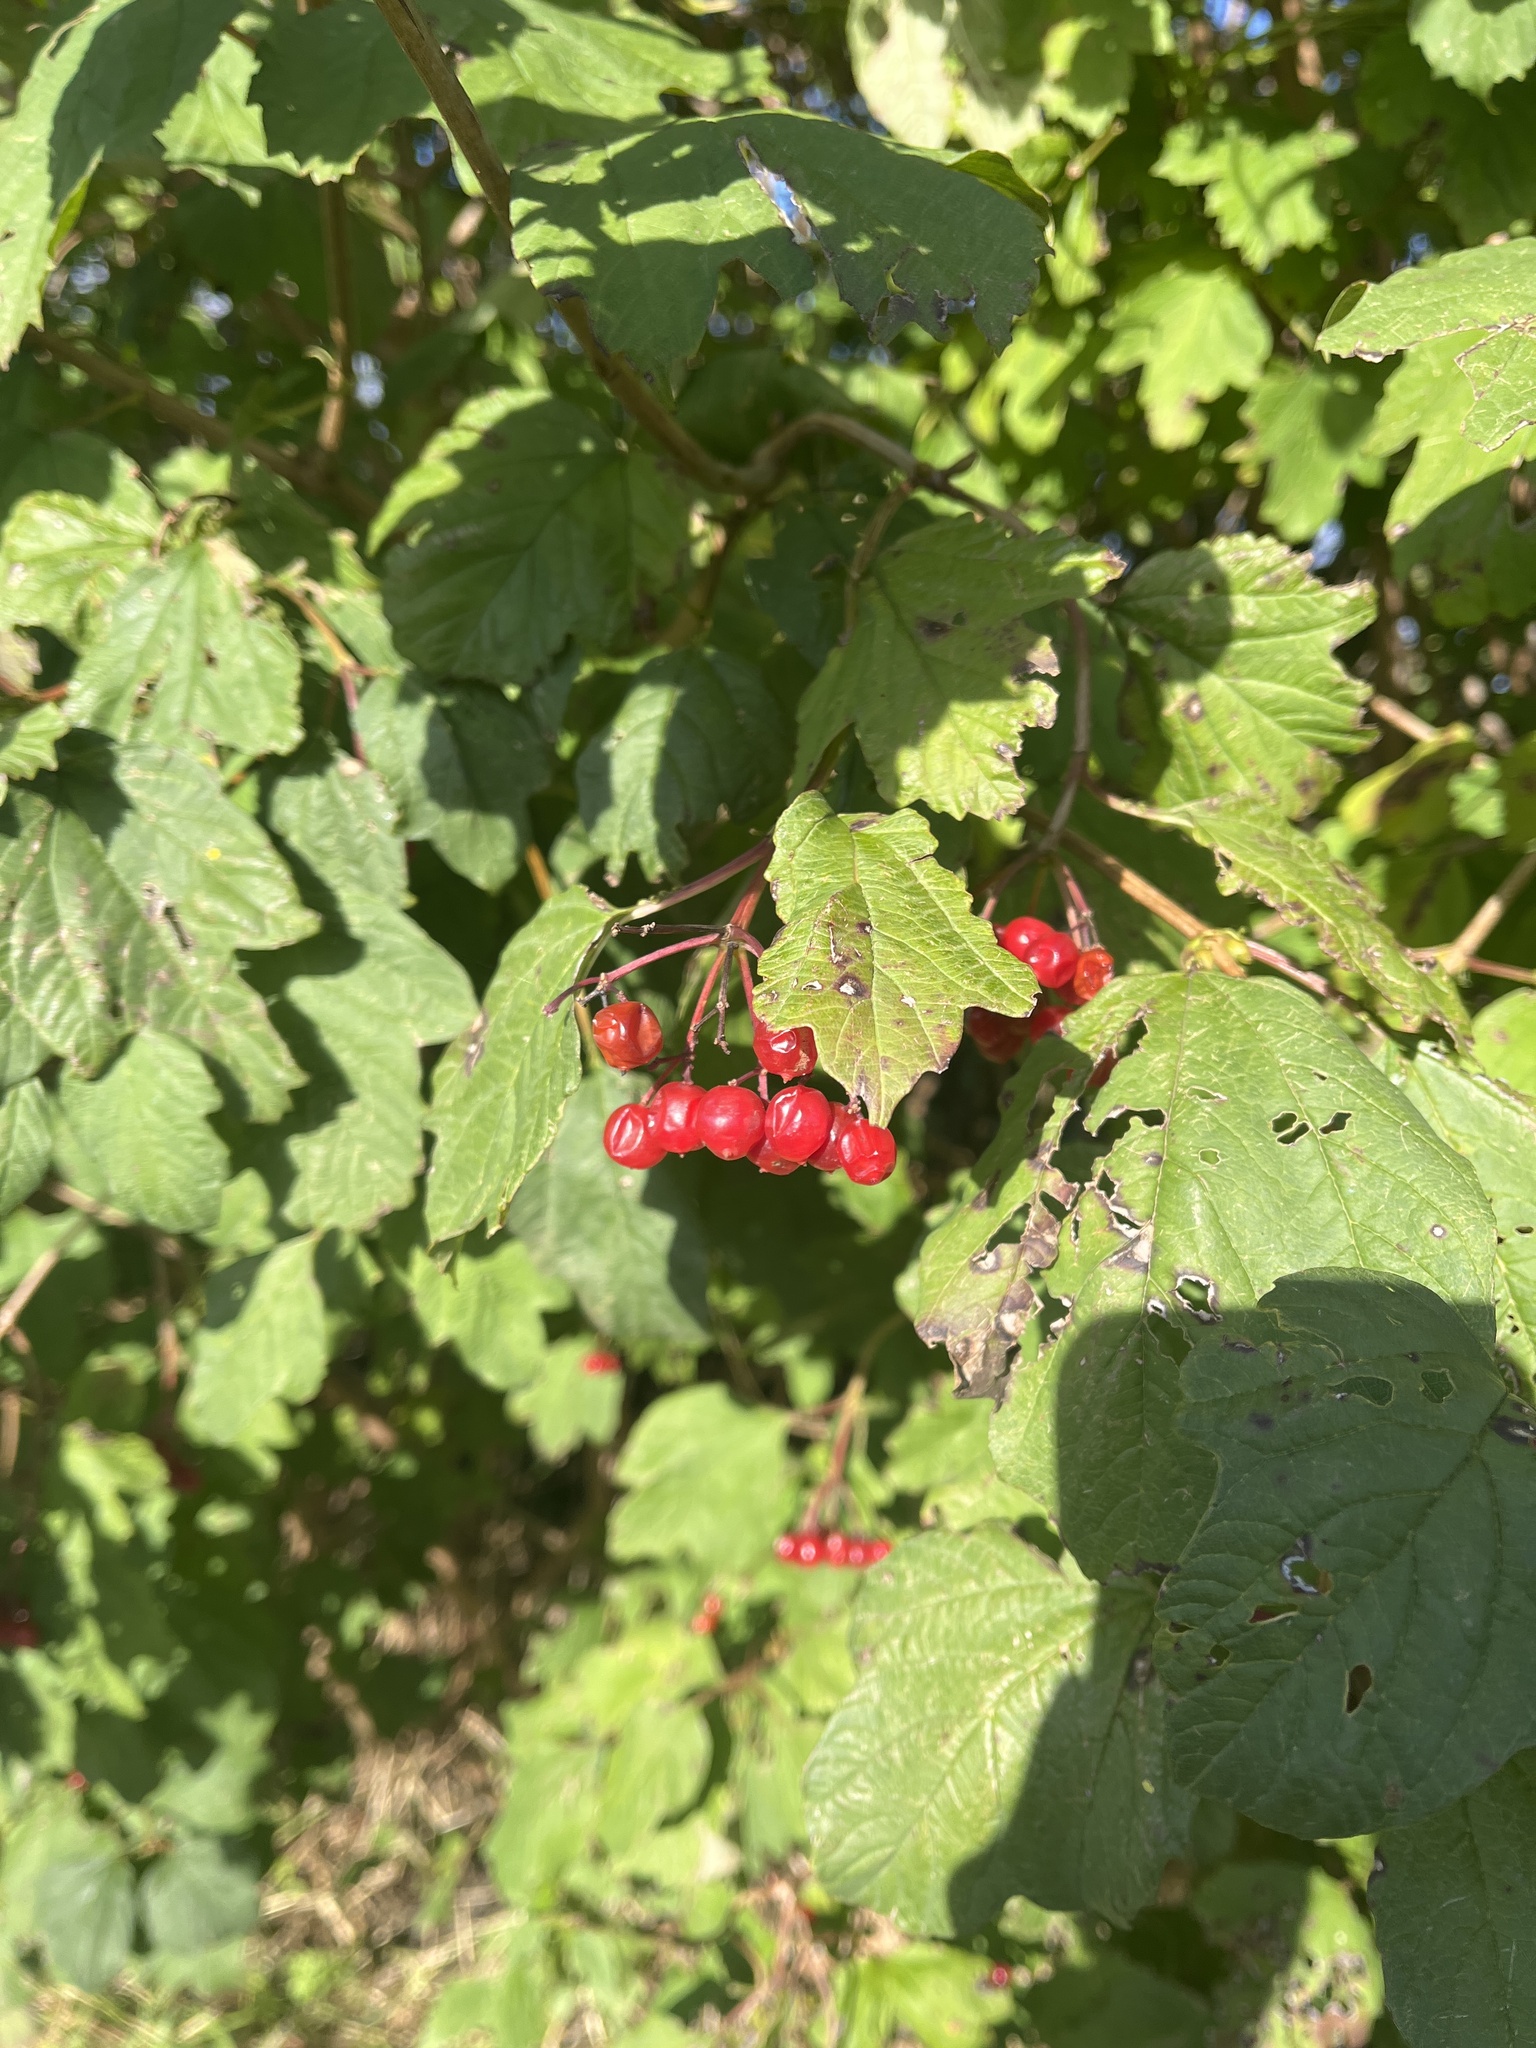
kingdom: Plantae
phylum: Tracheophyta
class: Magnoliopsida
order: Dipsacales
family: Viburnaceae
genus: Viburnum
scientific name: Viburnum opulus
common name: Guelder-rose
